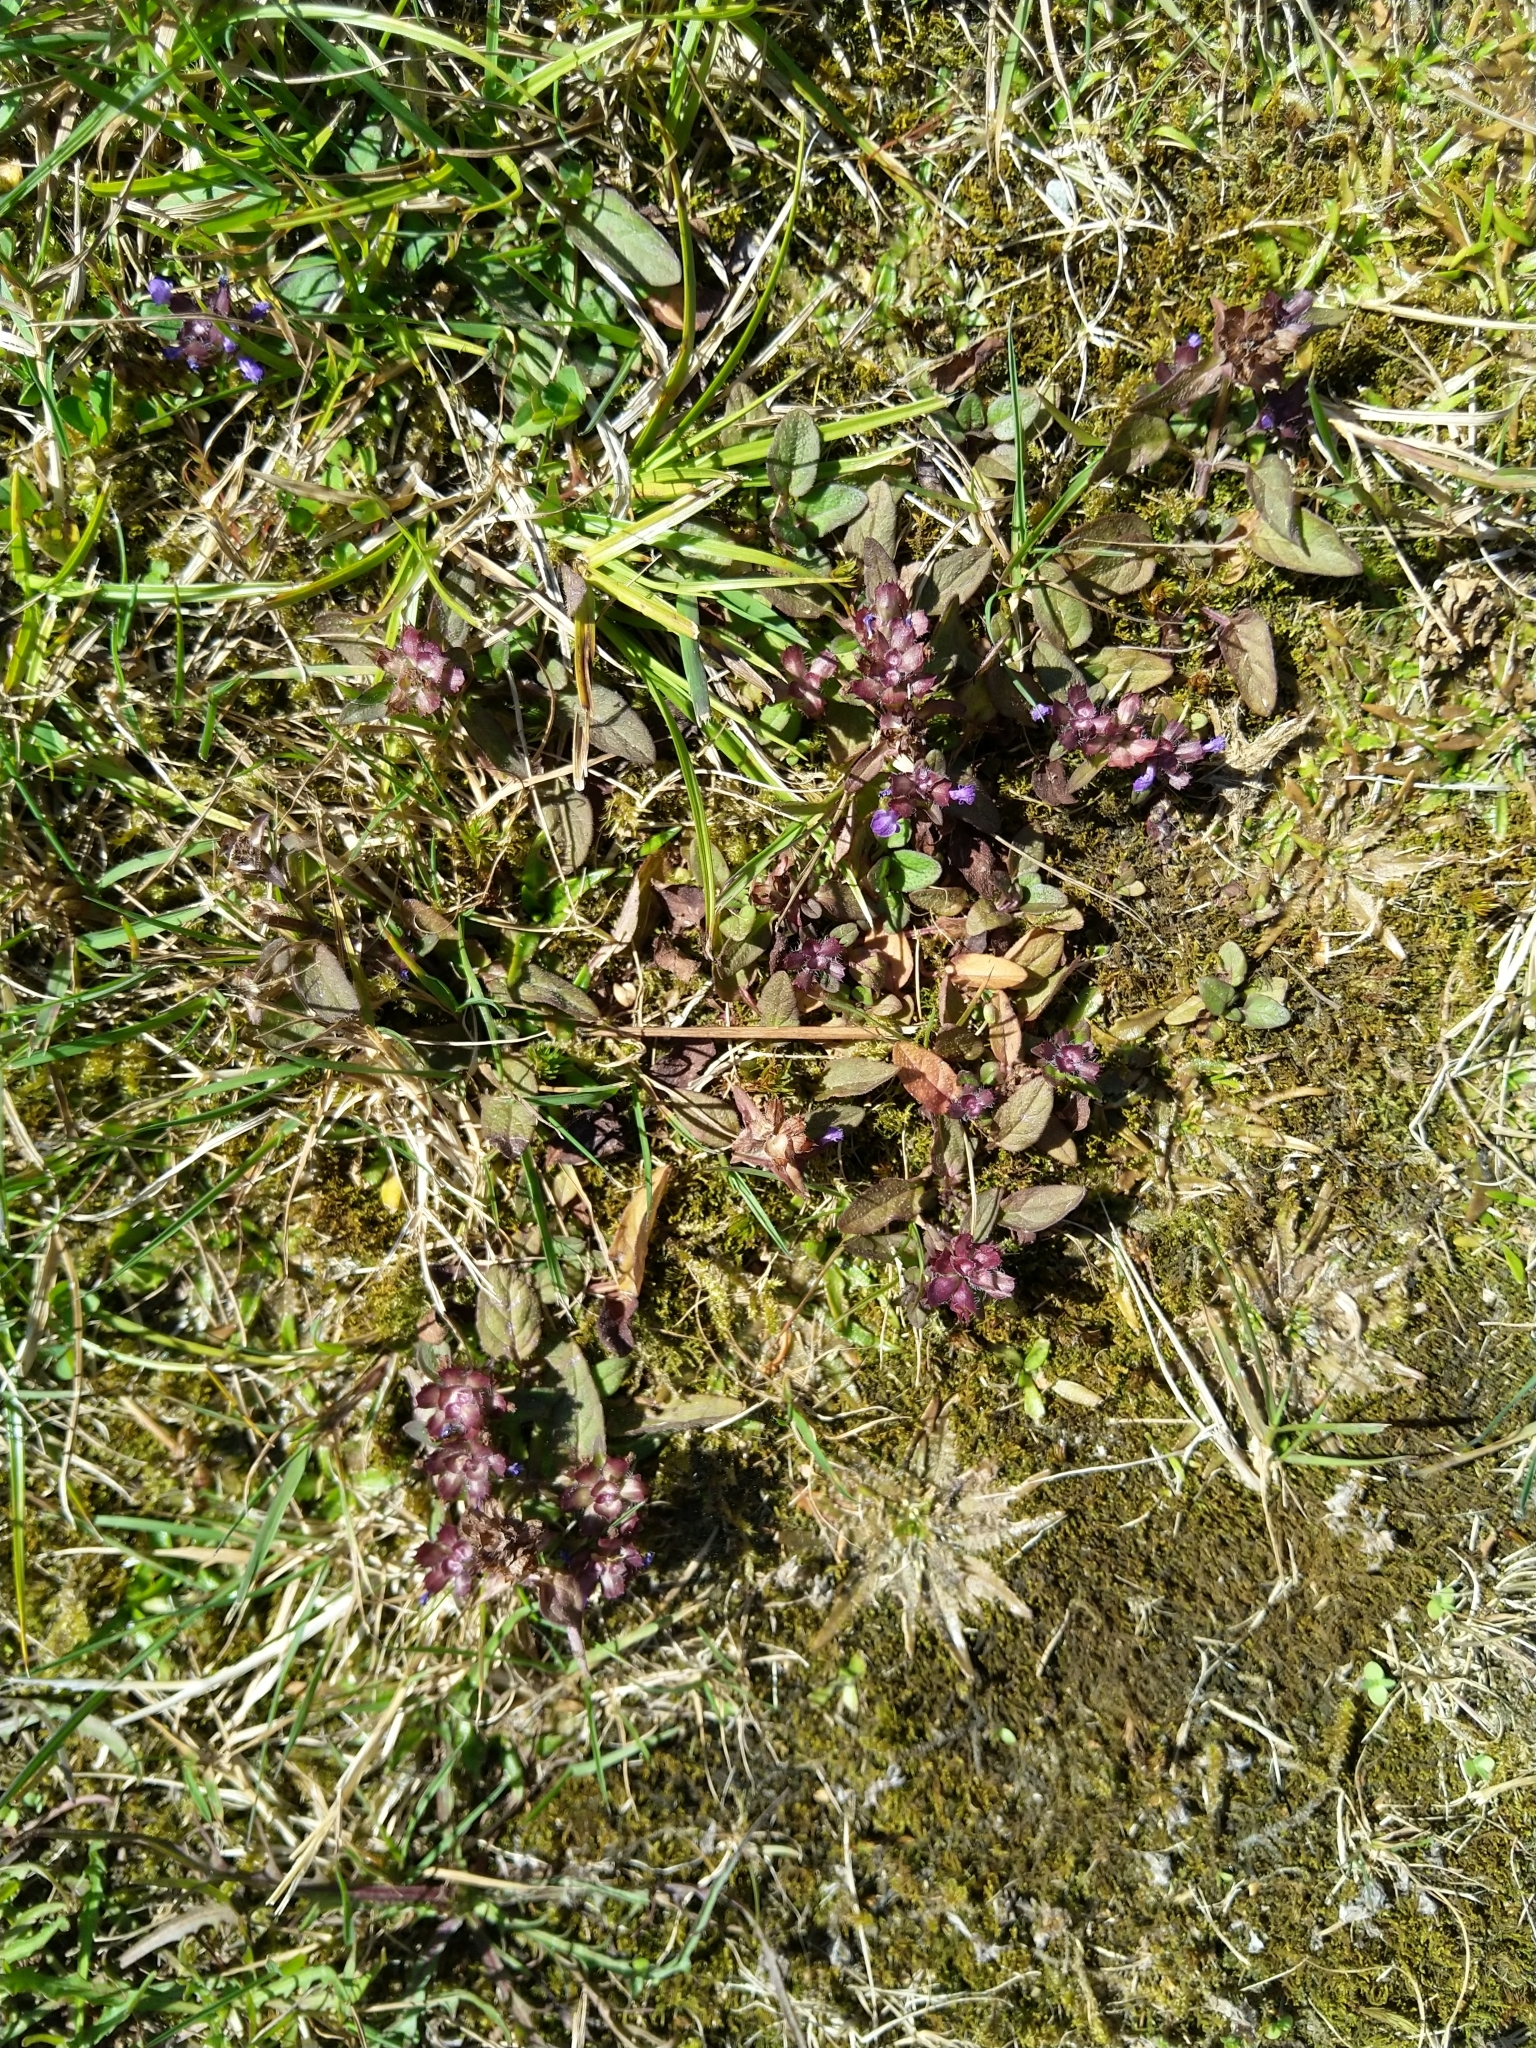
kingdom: Plantae
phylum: Tracheophyta
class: Magnoliopsida
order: Lamiales
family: Lamiaceae
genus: Prunella
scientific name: Prunella vulgaris
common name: Heal-all
